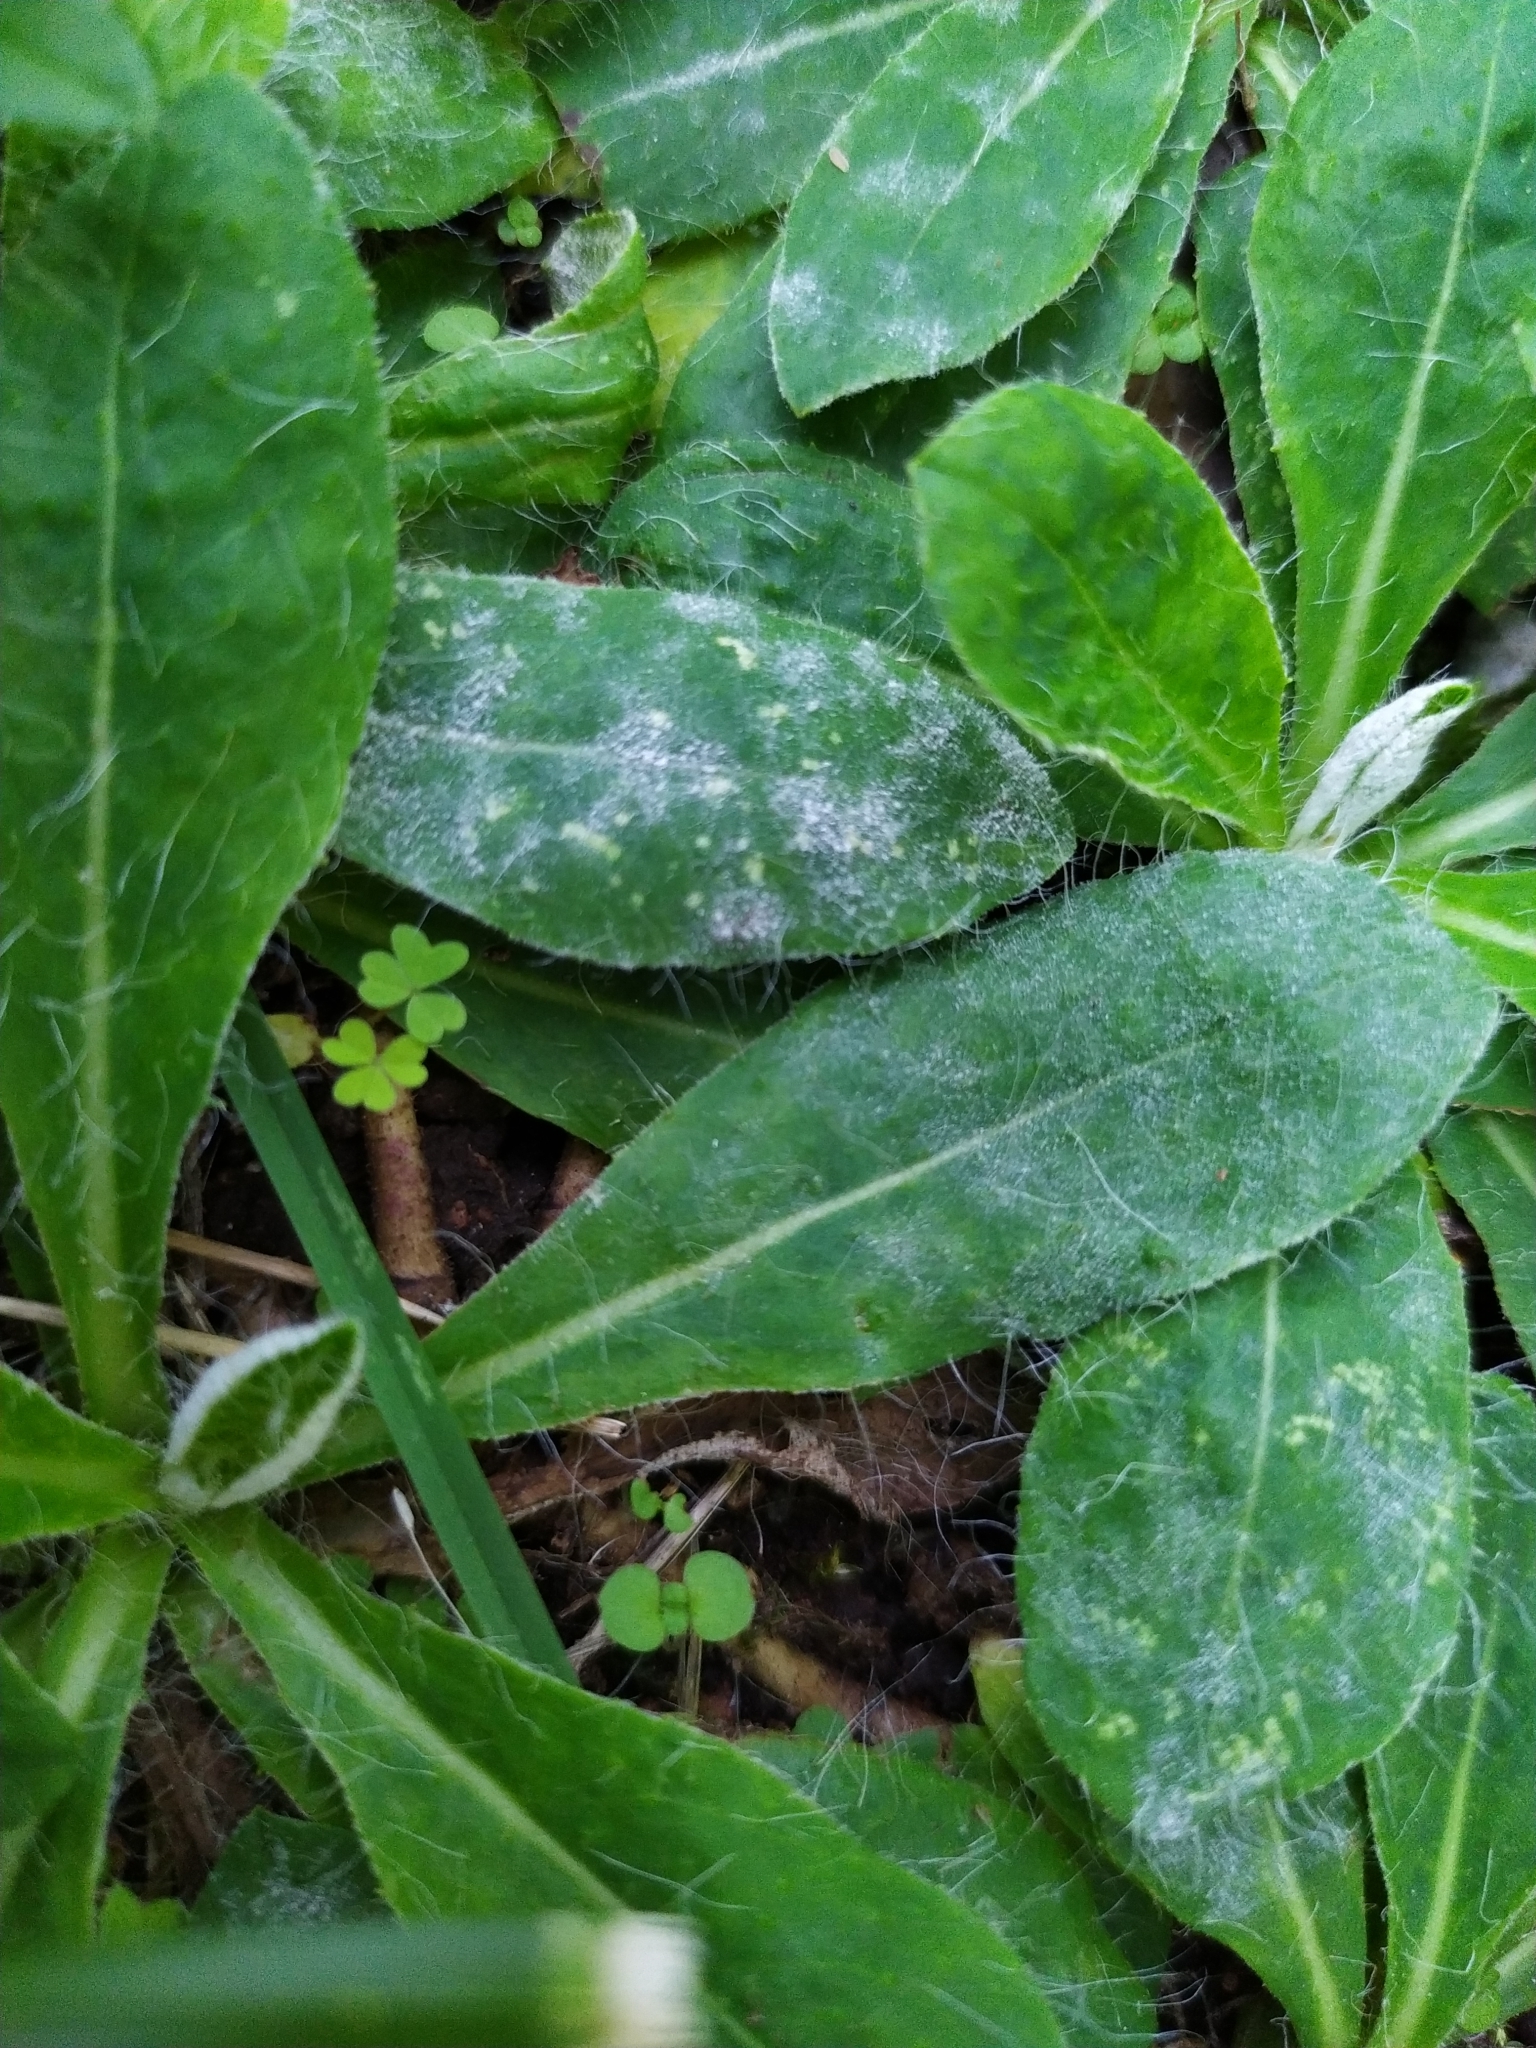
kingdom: Fungi
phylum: Ascomycota
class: Leotiomycetes
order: Helotiales
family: Erysiphaceae
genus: Golovinomyces
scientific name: Golovinomyces hieraciorum
